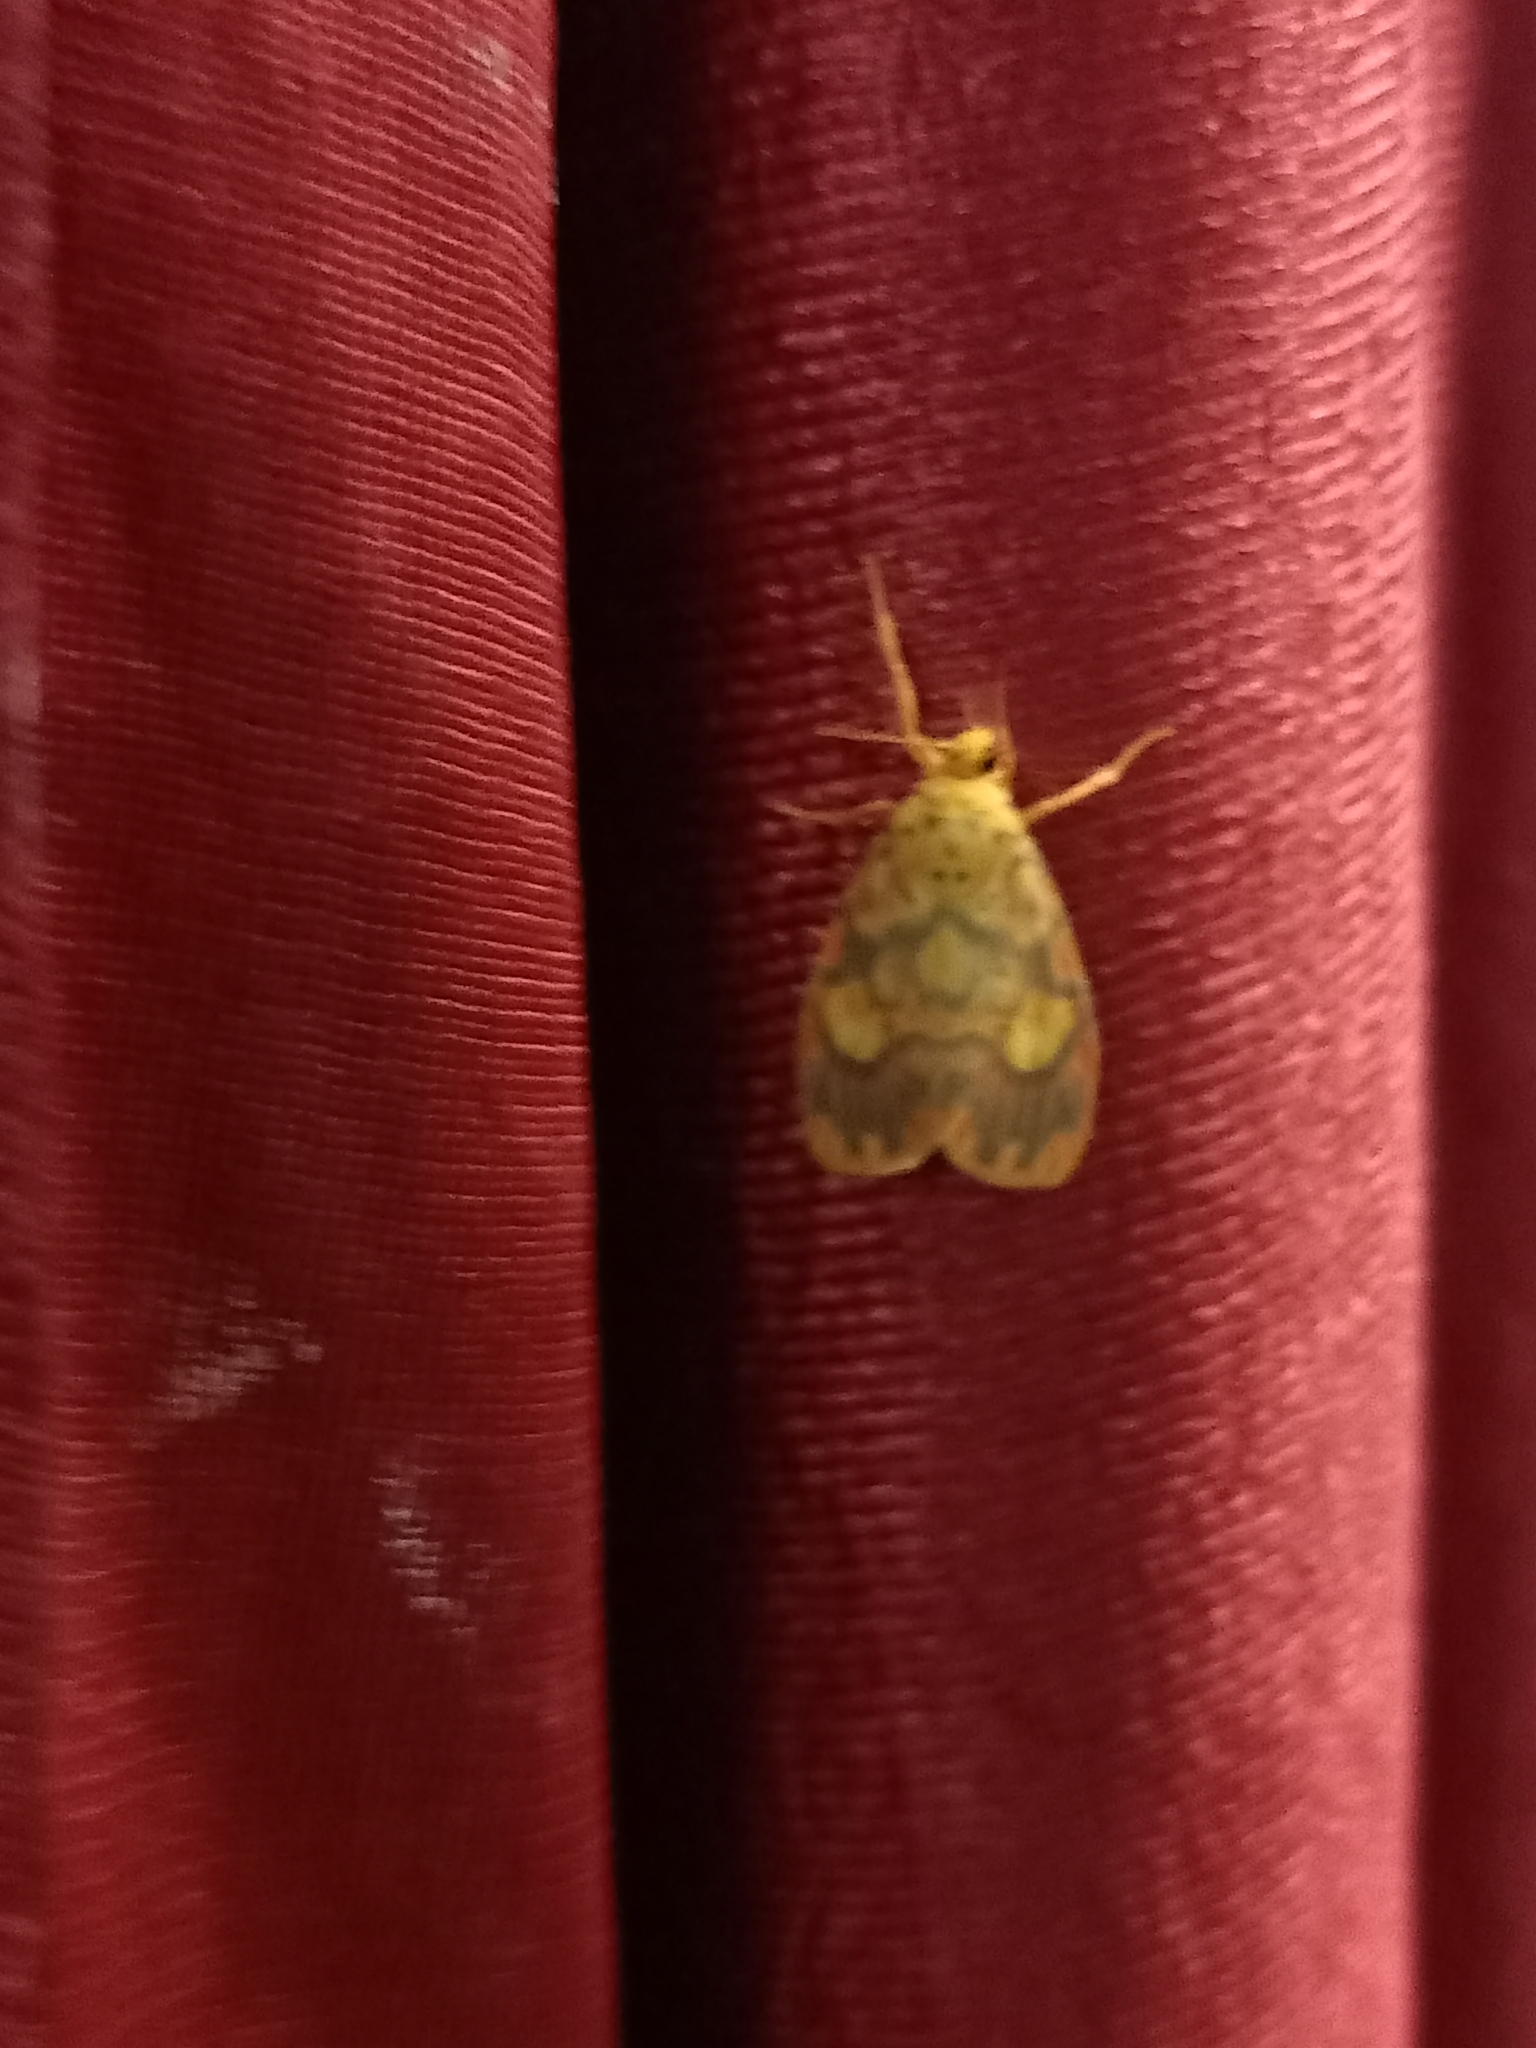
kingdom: Animalia
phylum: Arthropoda
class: Insecta
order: Lepidoptera
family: Erebidae
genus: Ammatho
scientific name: Ammatho cuneonotatus
